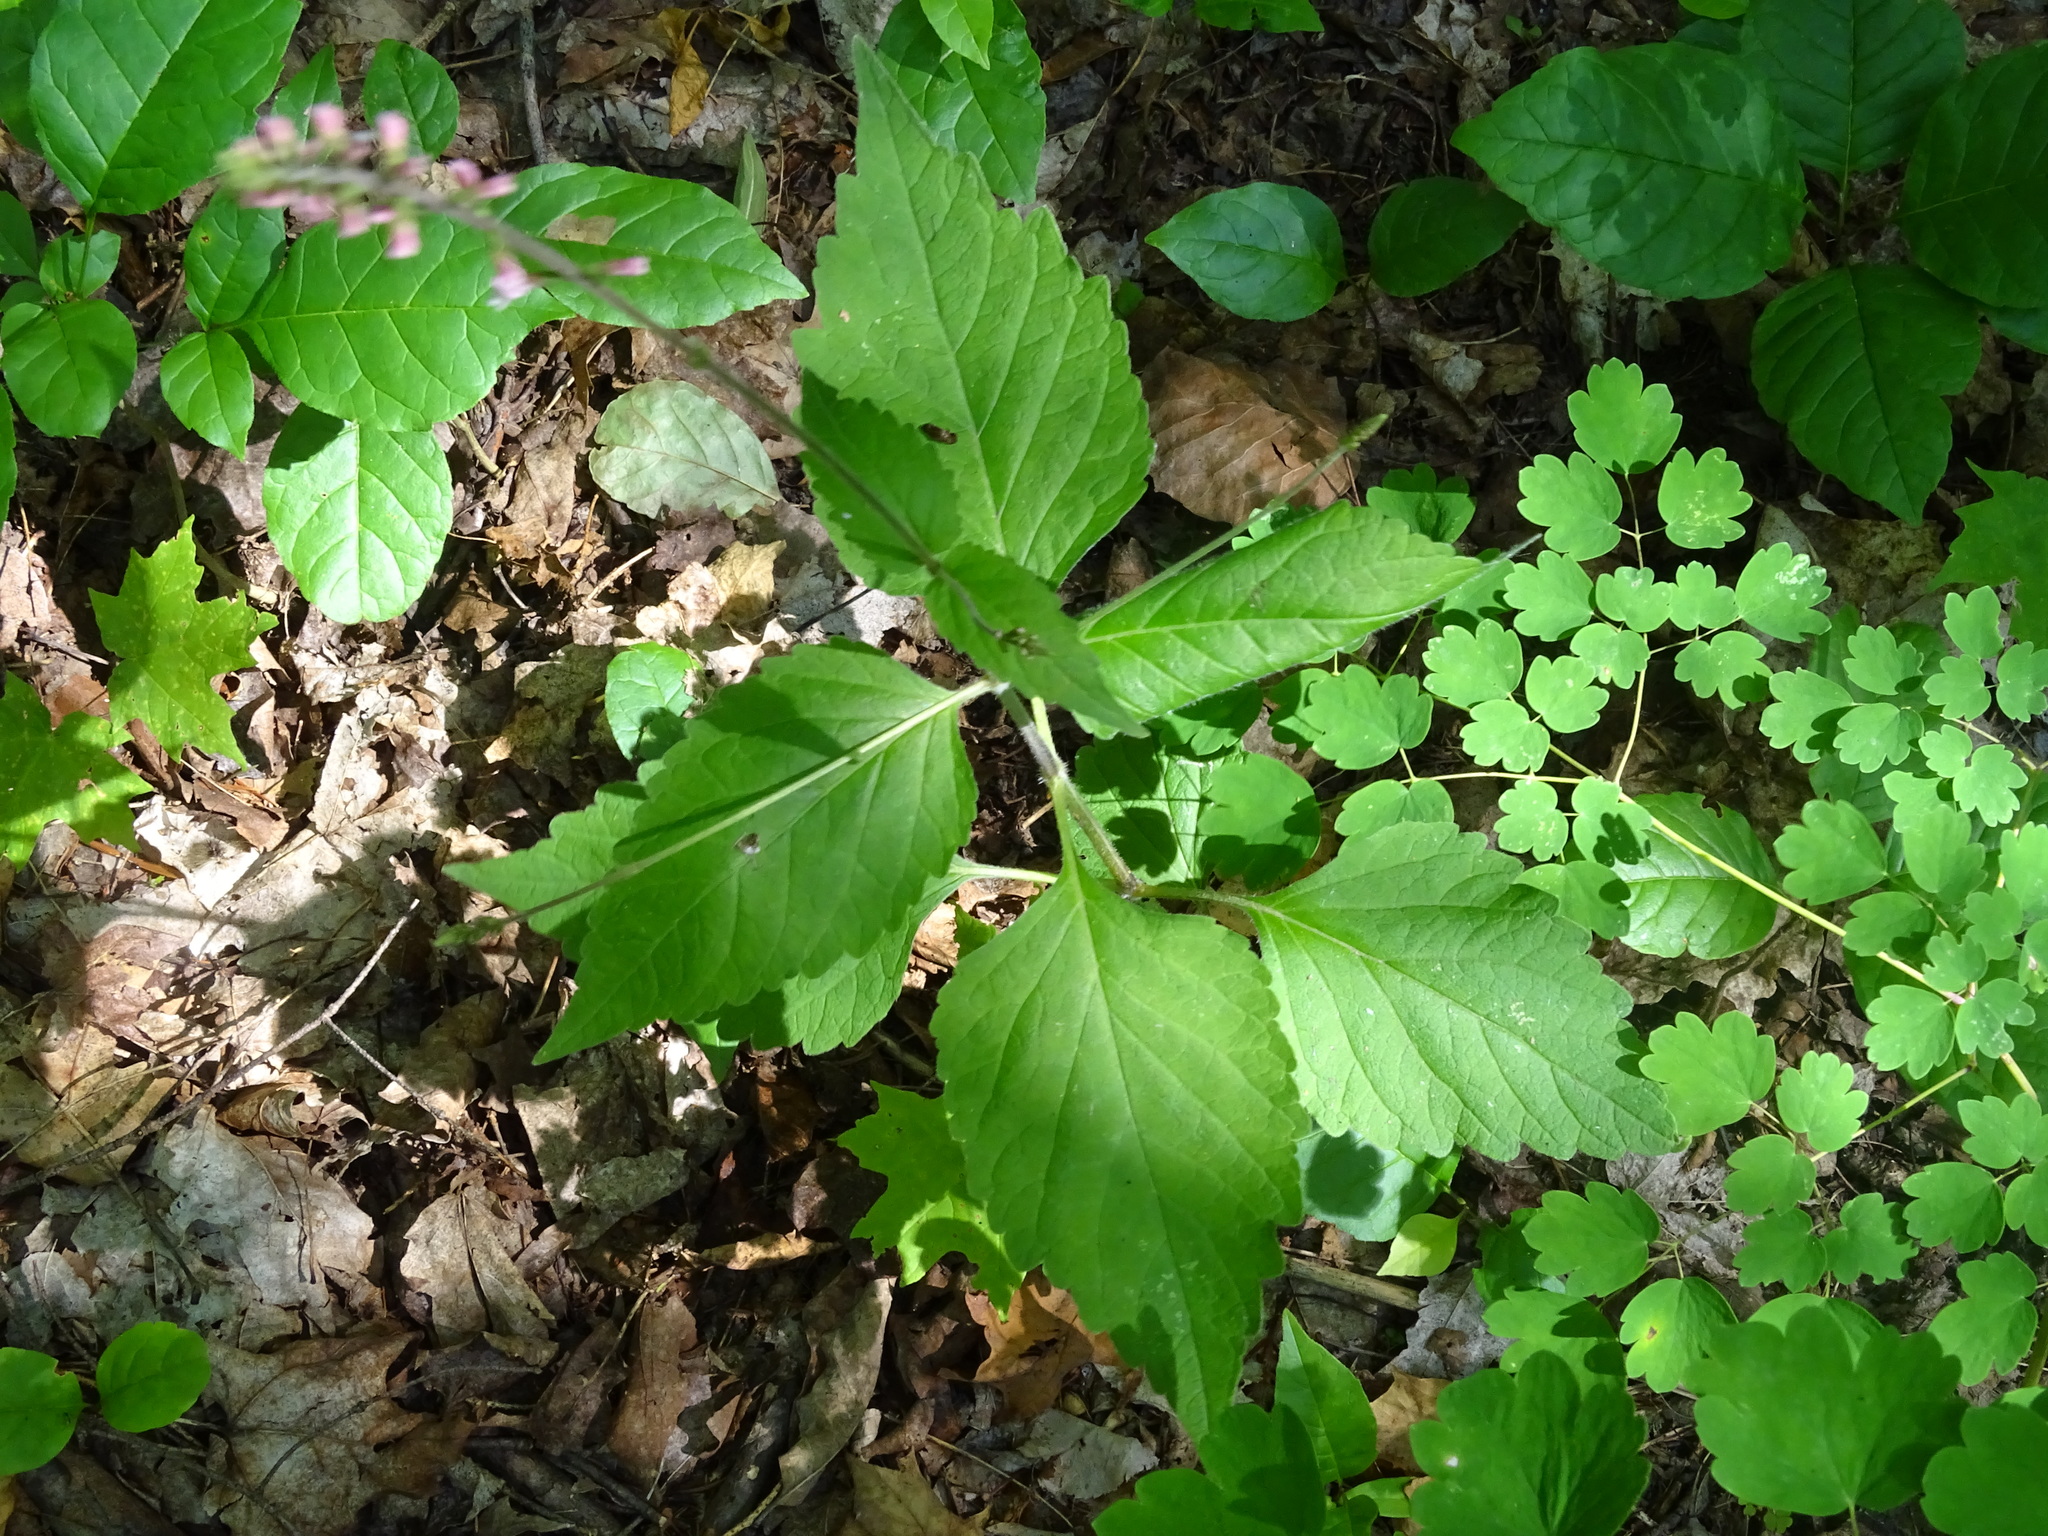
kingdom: Plantae
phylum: Tracheophyta
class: Magnoliopsida
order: Lamiales
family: Phrymaceae
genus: Phryma
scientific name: Phryma leptostachya
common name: American lopseed
